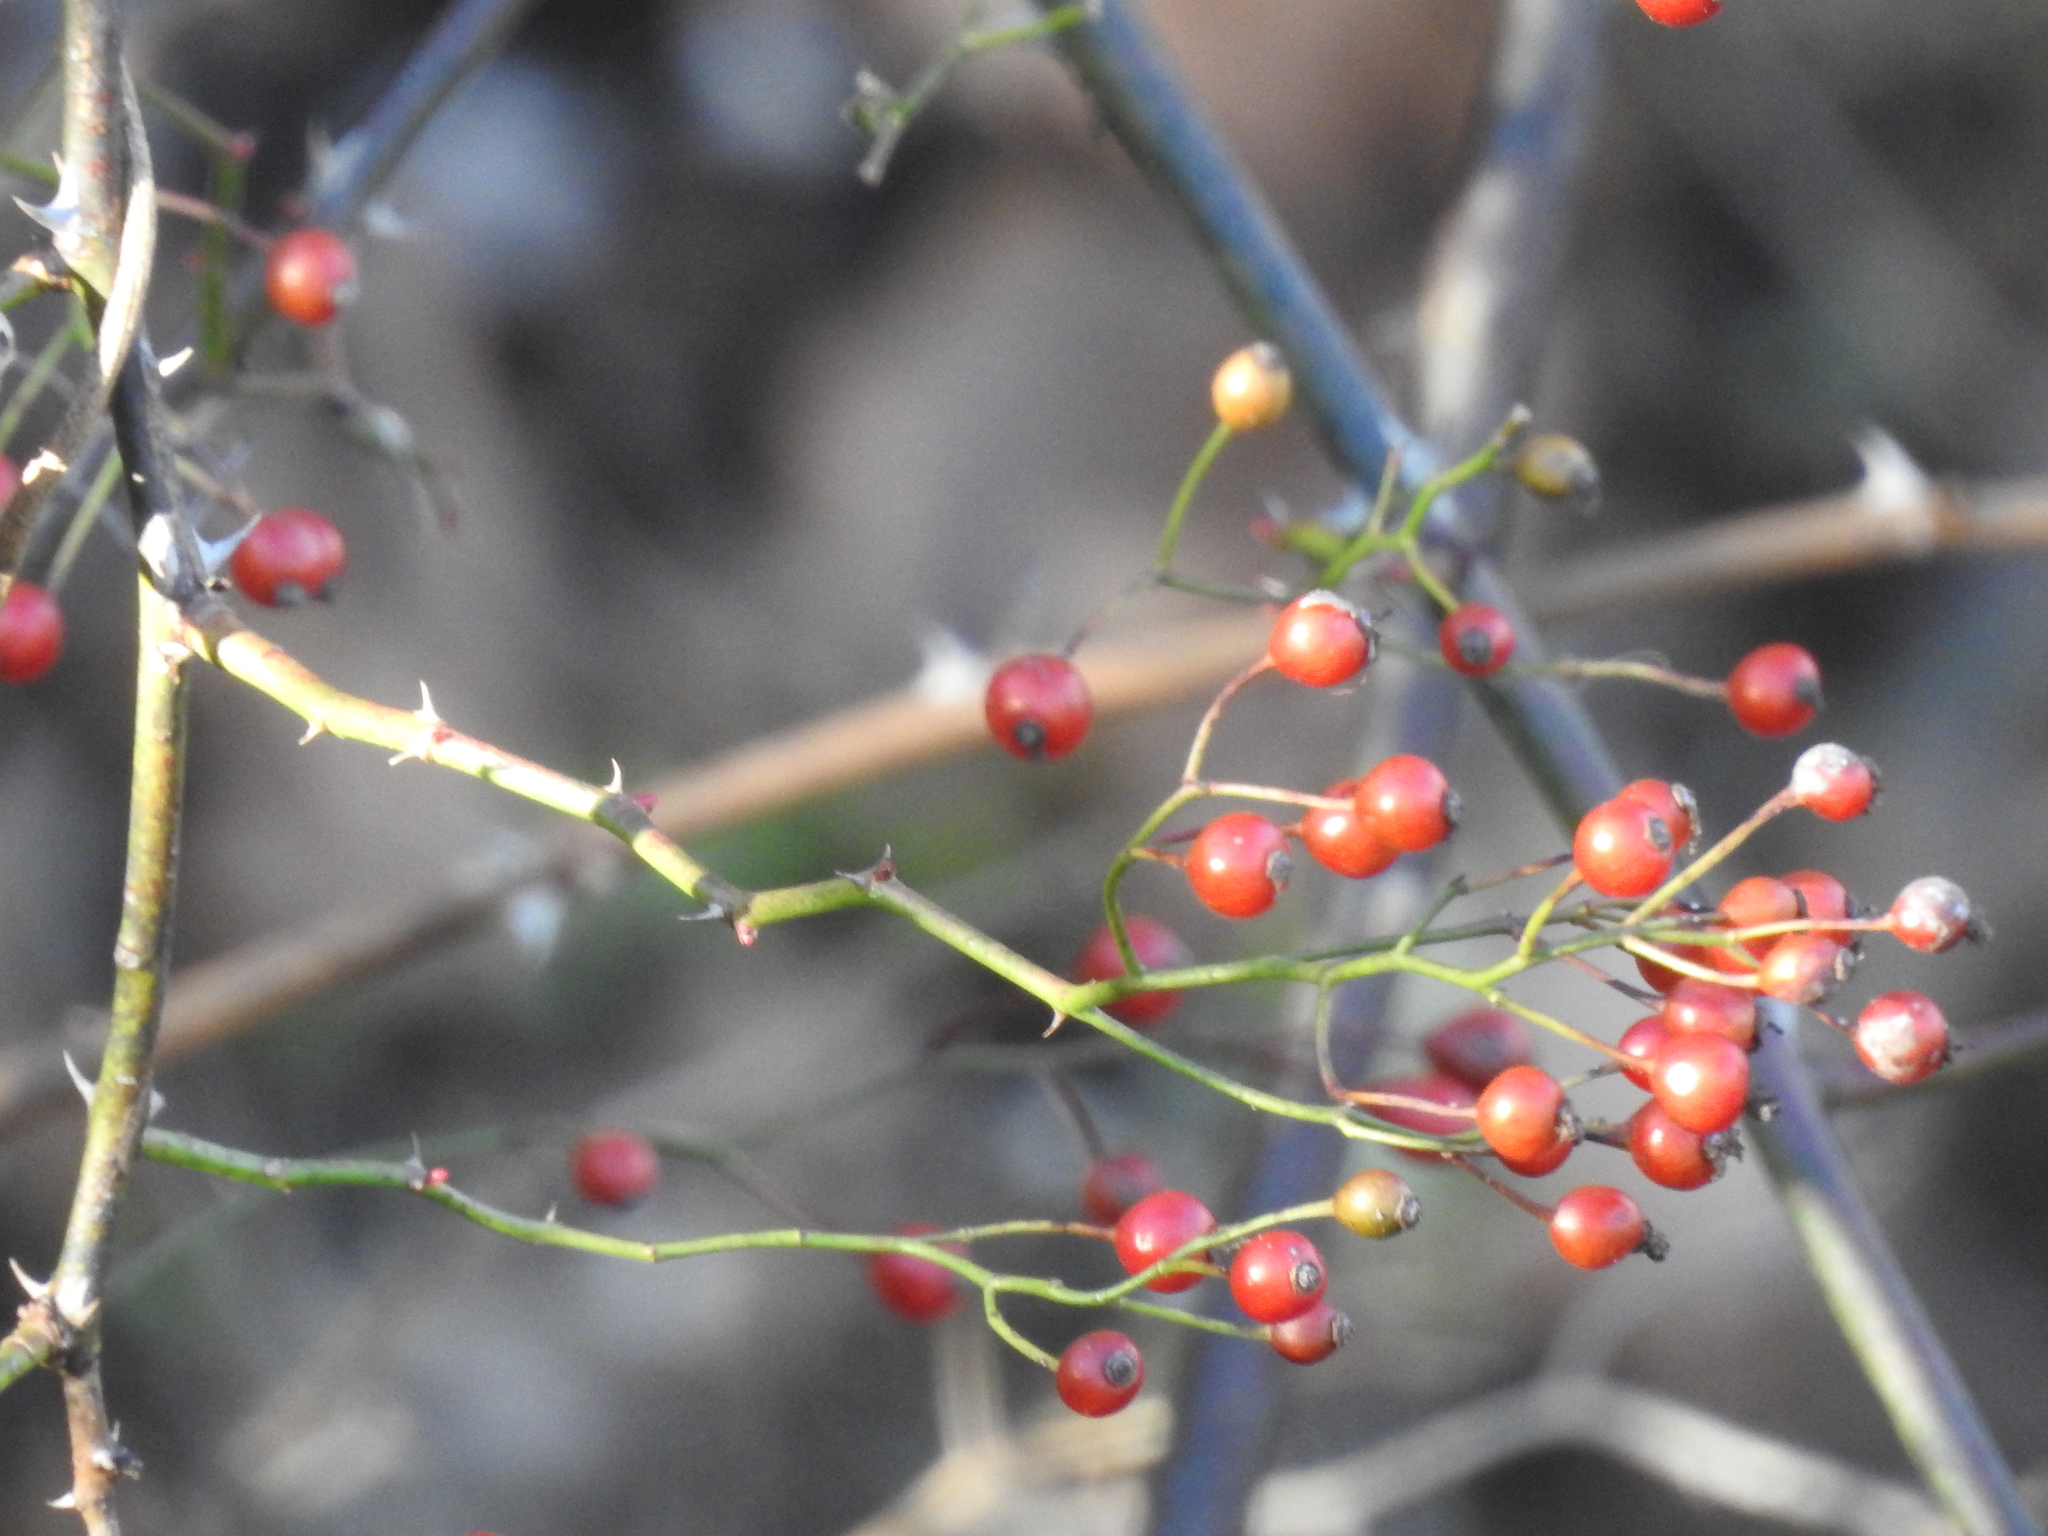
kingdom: Plantae
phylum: Tracheophyta
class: Magnoliopsida
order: Rosales
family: Rosaceae
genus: Rosa
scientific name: Rosa multiflora
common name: Multiflora rose
